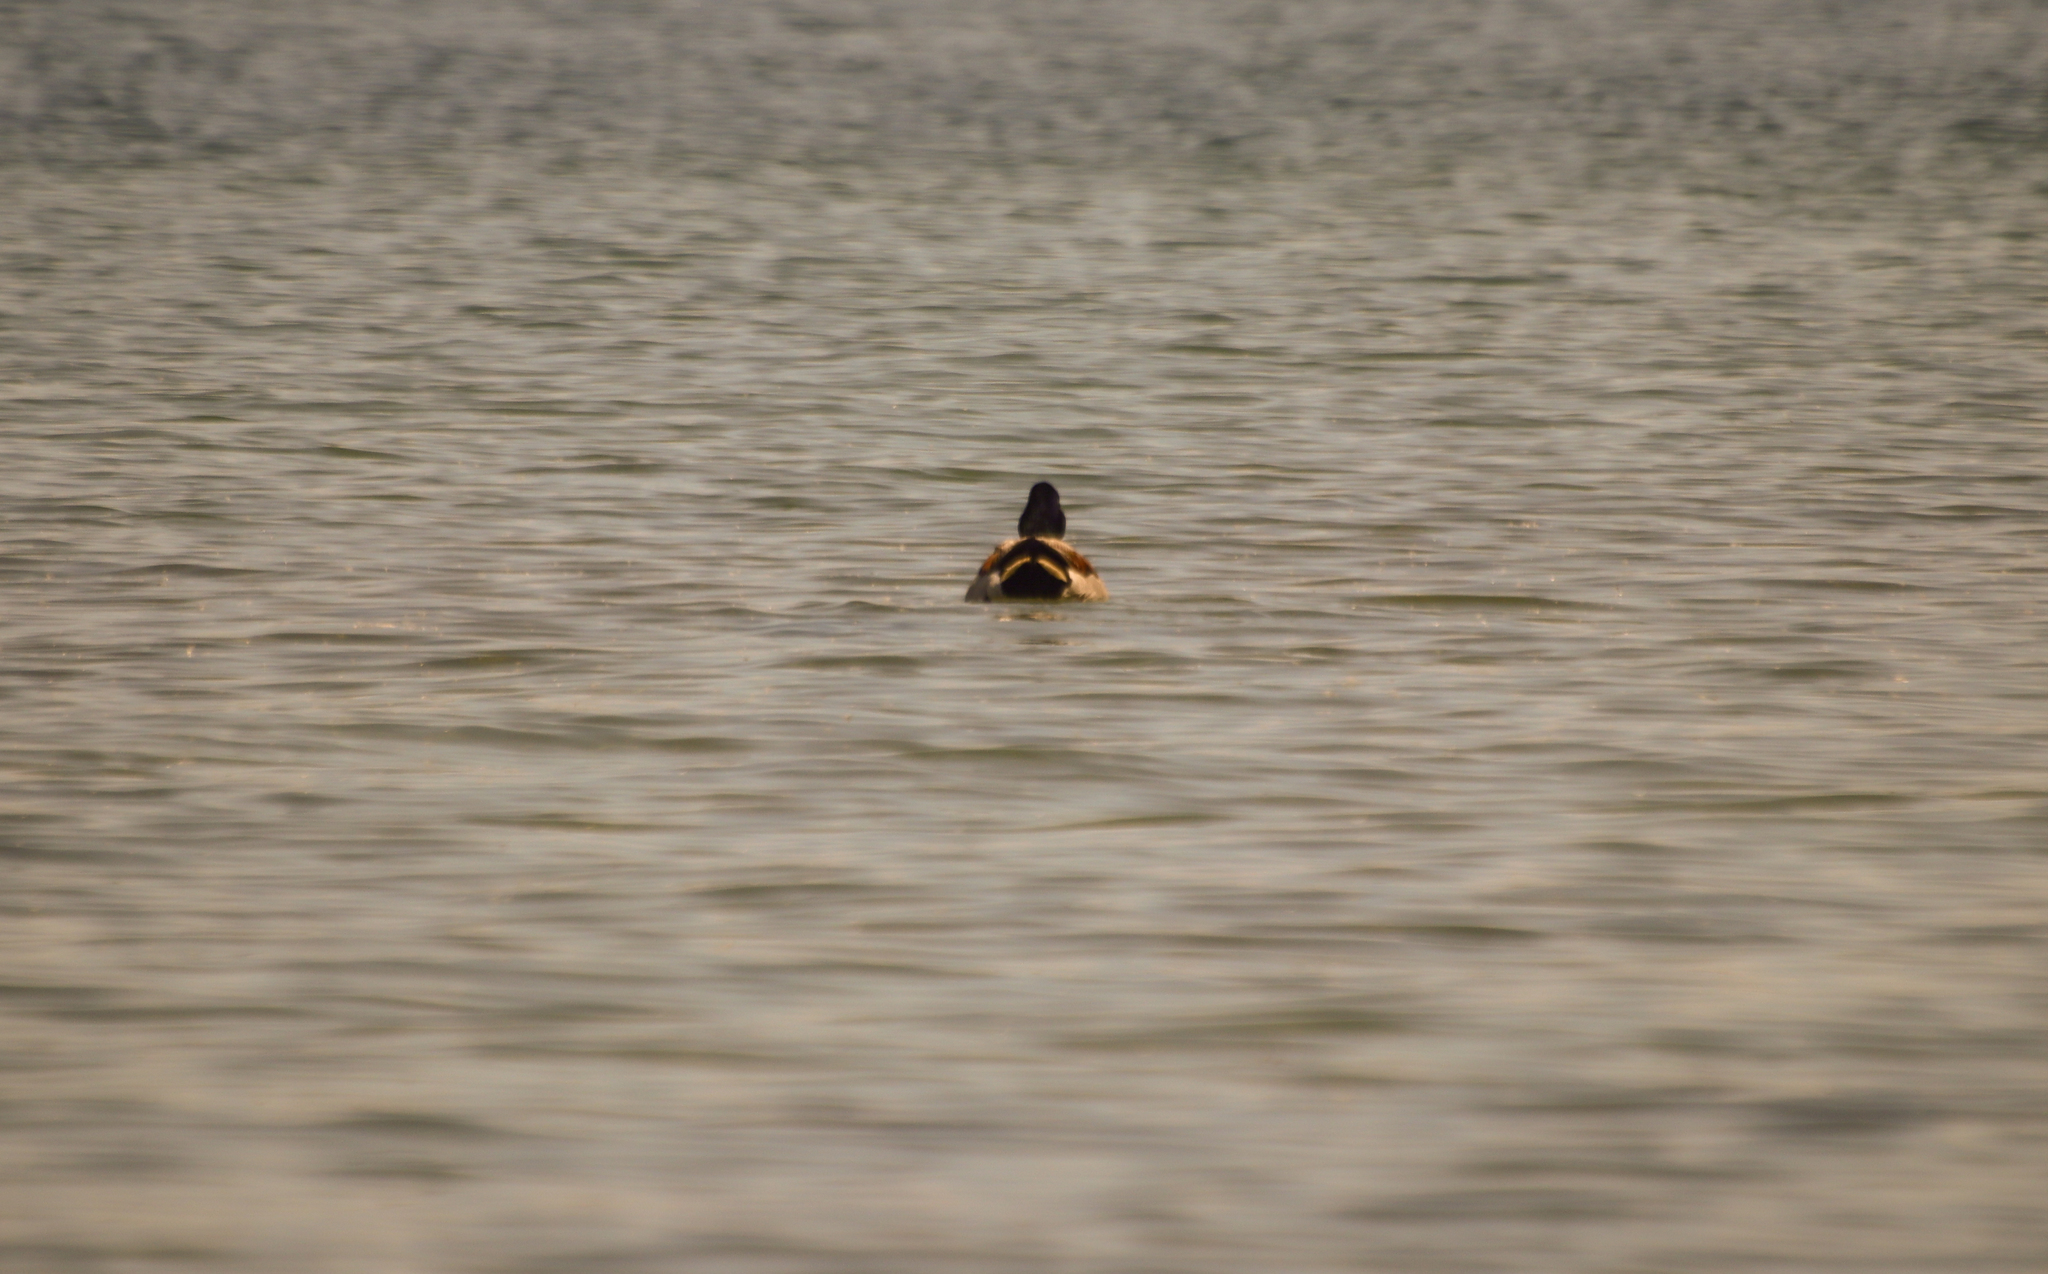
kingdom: Animalia
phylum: Chordata
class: Aves
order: Anseriformes
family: Anatidae
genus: Anas
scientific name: Anas platyrhynchos
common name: Mallard
